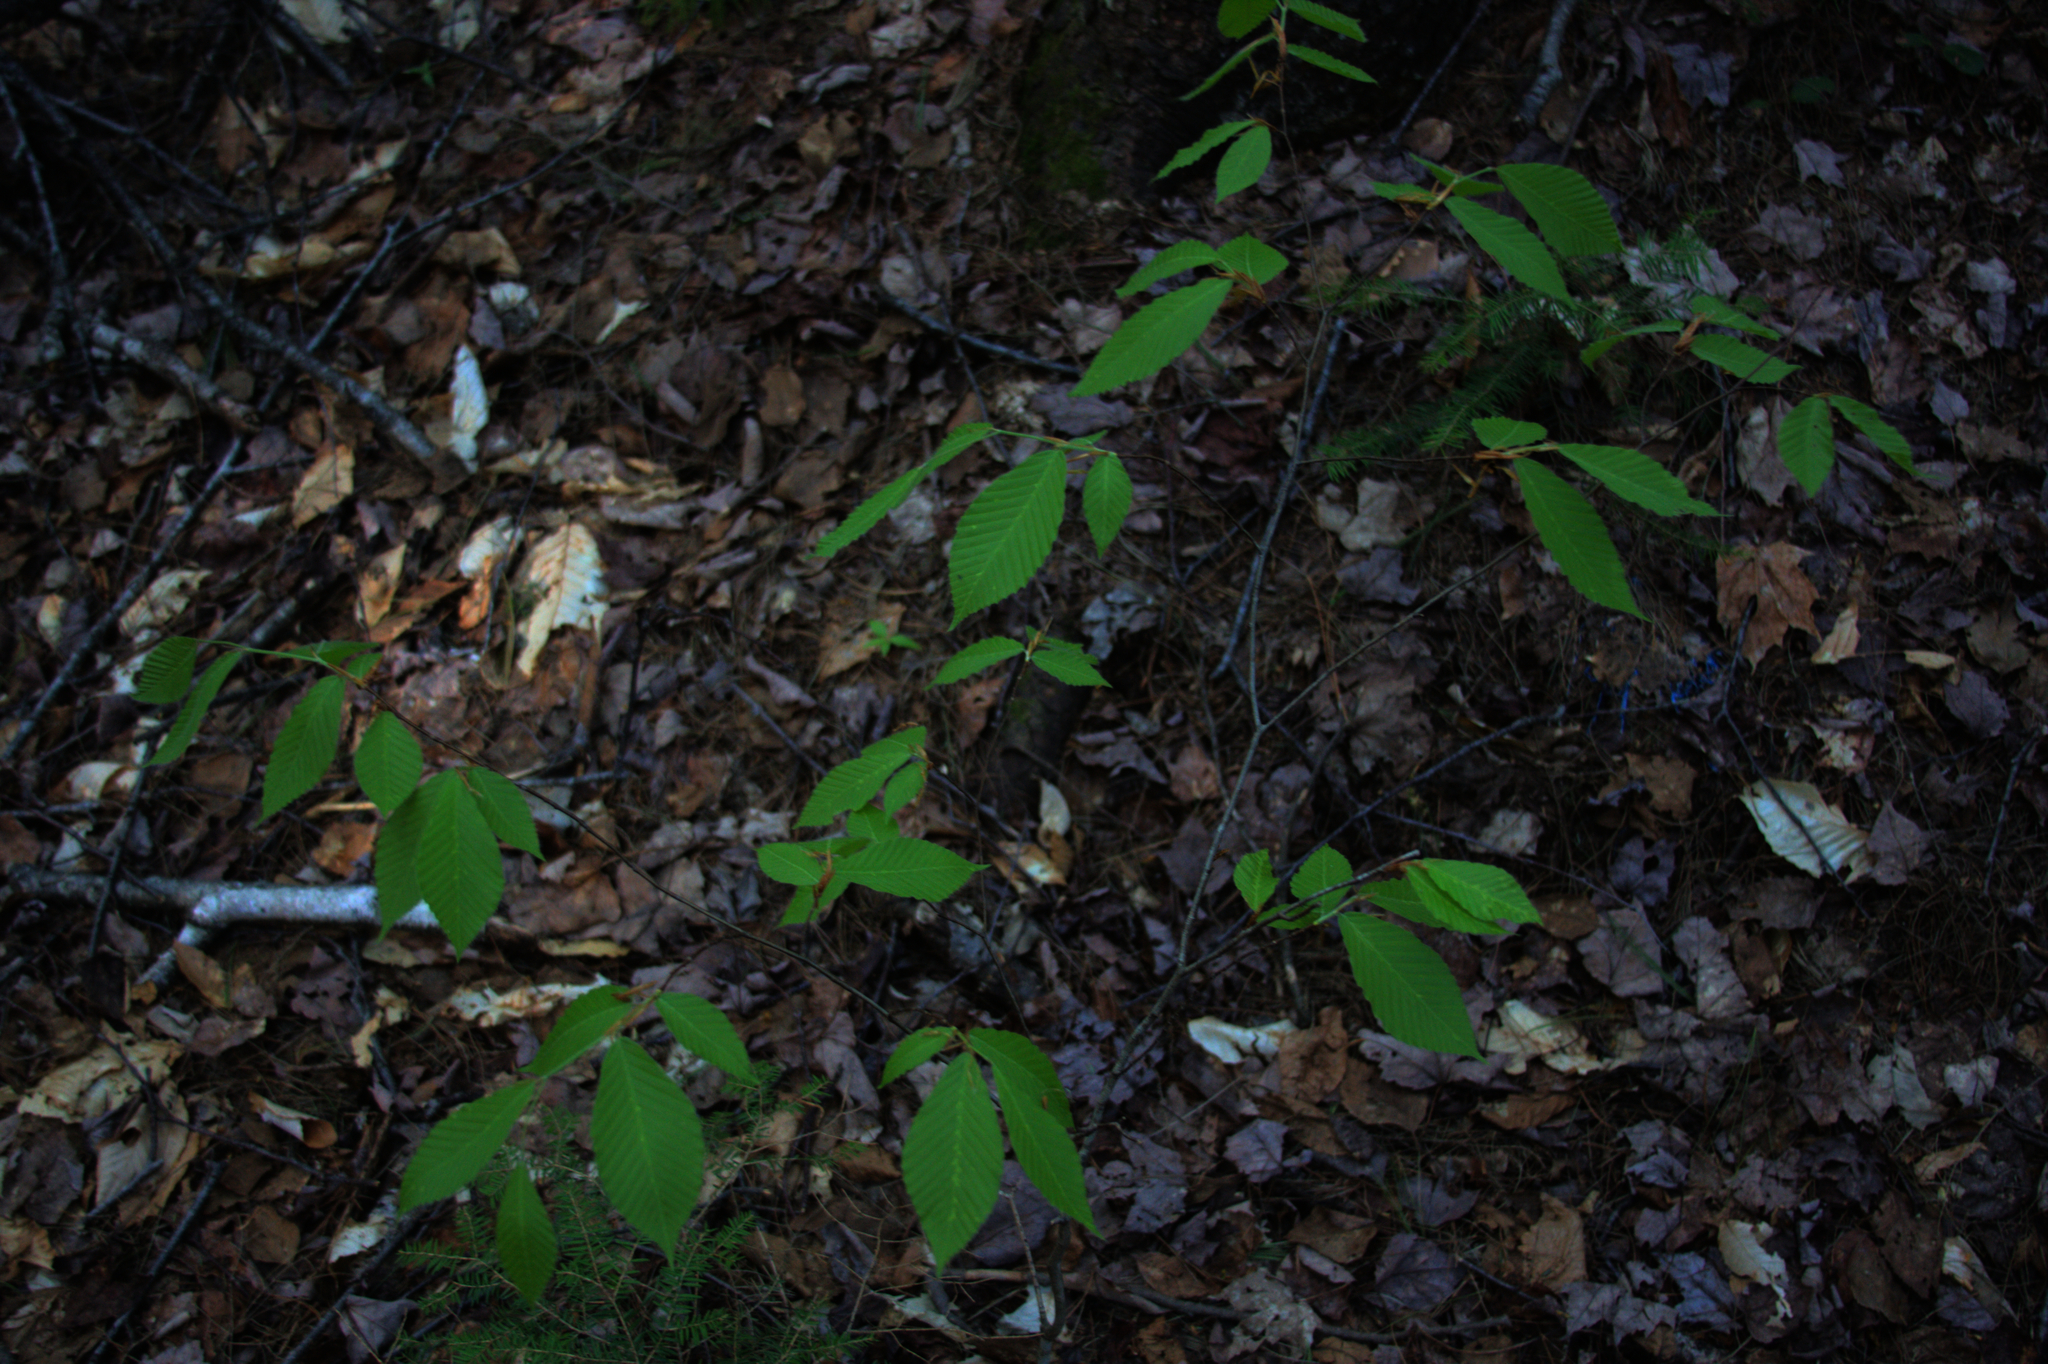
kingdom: Plantae
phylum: Tracheophyta
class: Magnoliopsida
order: Fagales
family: Fagaceae
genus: Fagus
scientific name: Fagus grandifolia
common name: American beech
